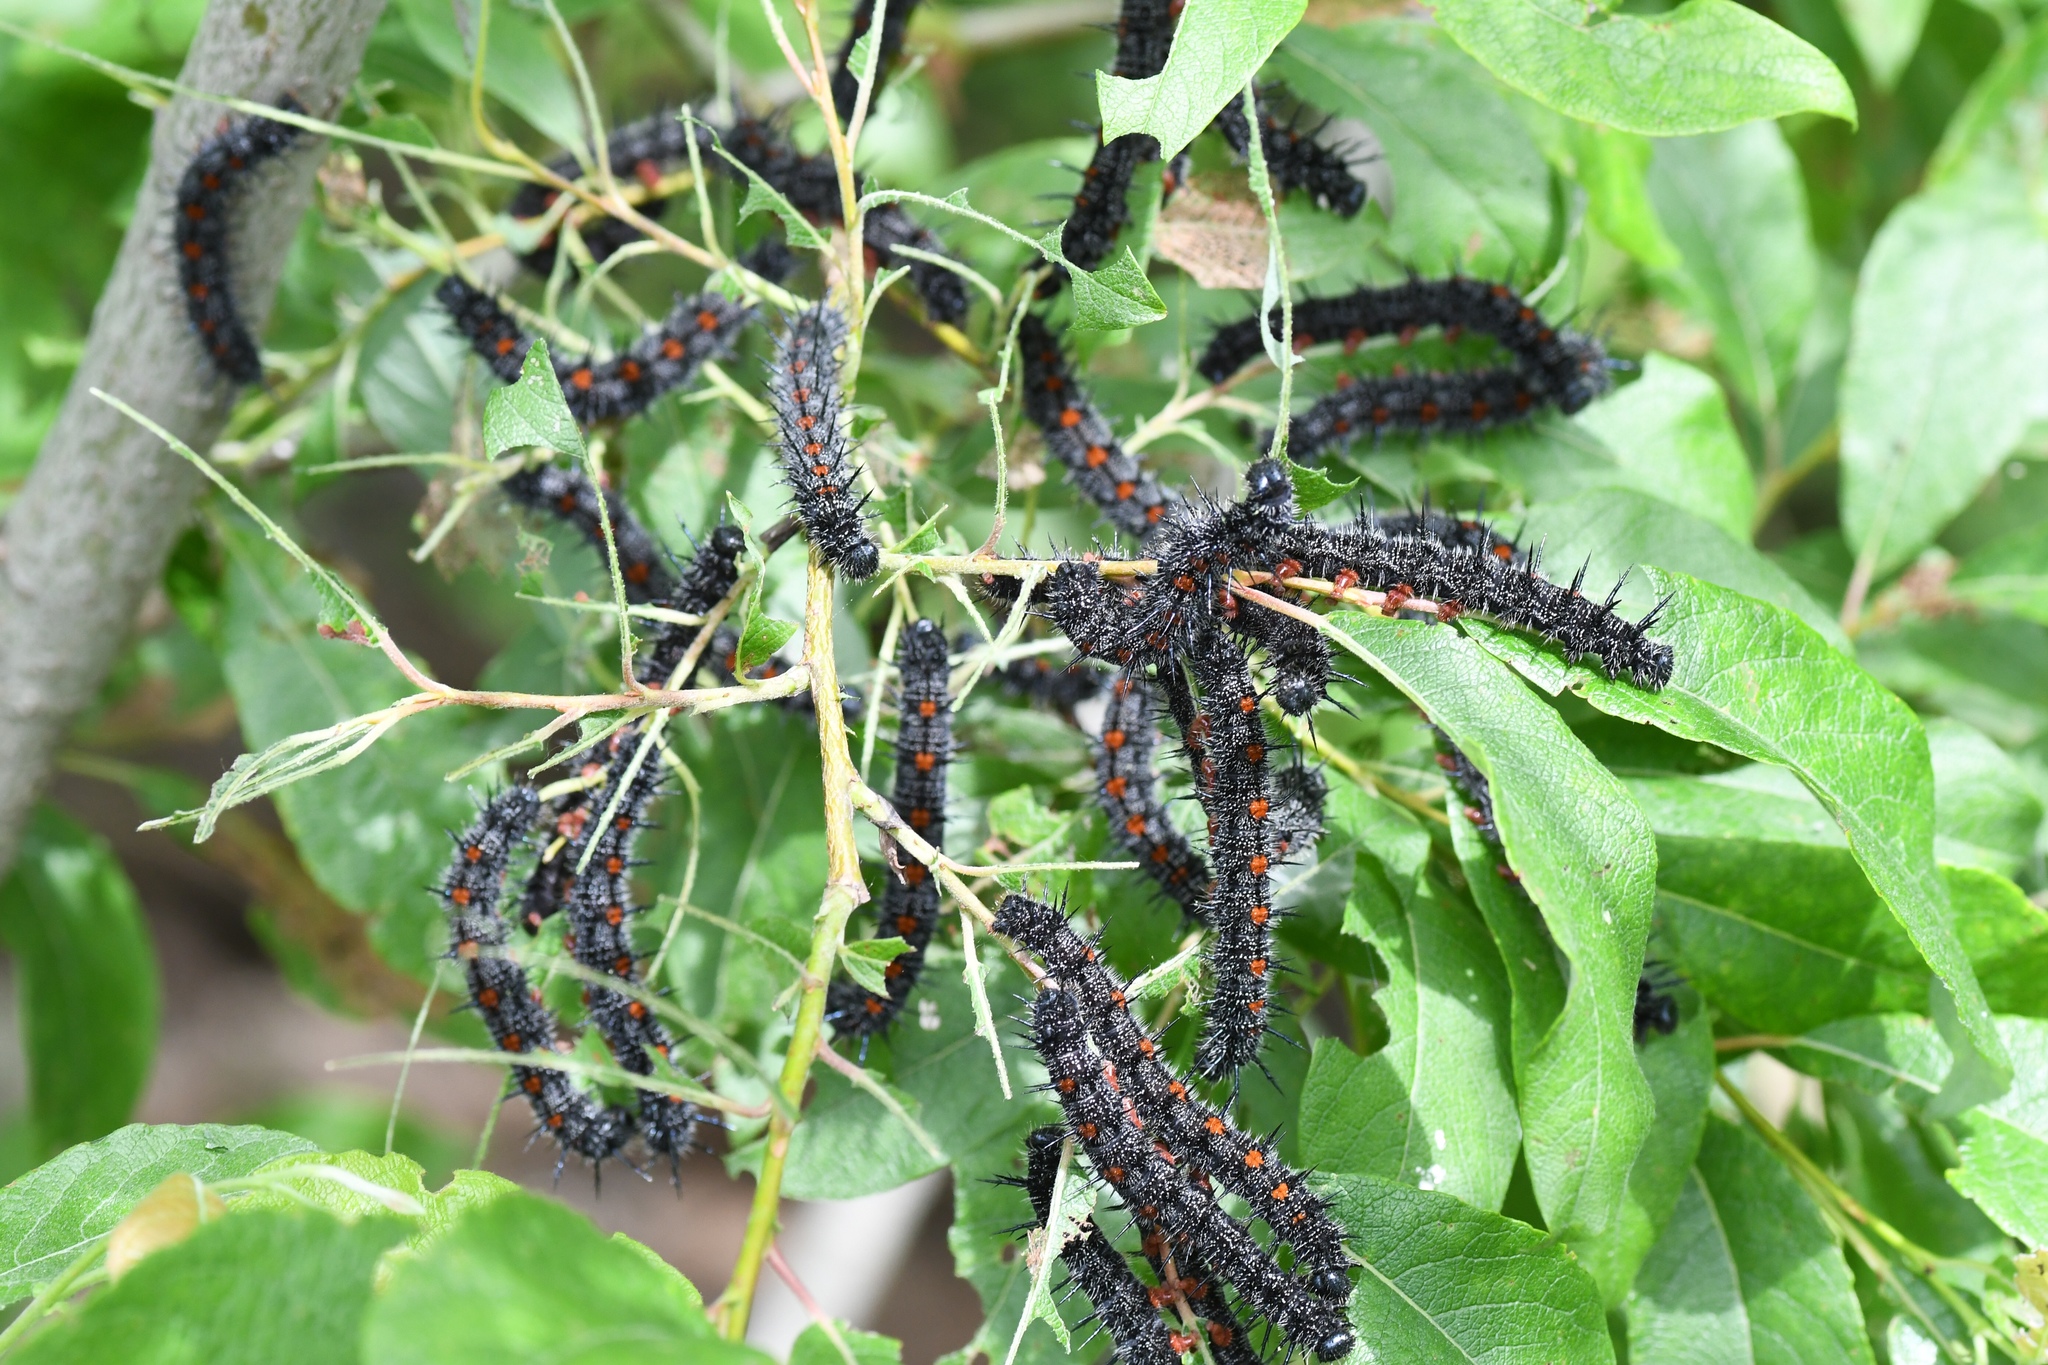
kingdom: Animalia
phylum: Arthropoda
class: Insecta
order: Lepidoptera
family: Nymphalidae
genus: Nymphalis
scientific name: Nymphalis antiopa
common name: Camberwell beauty
